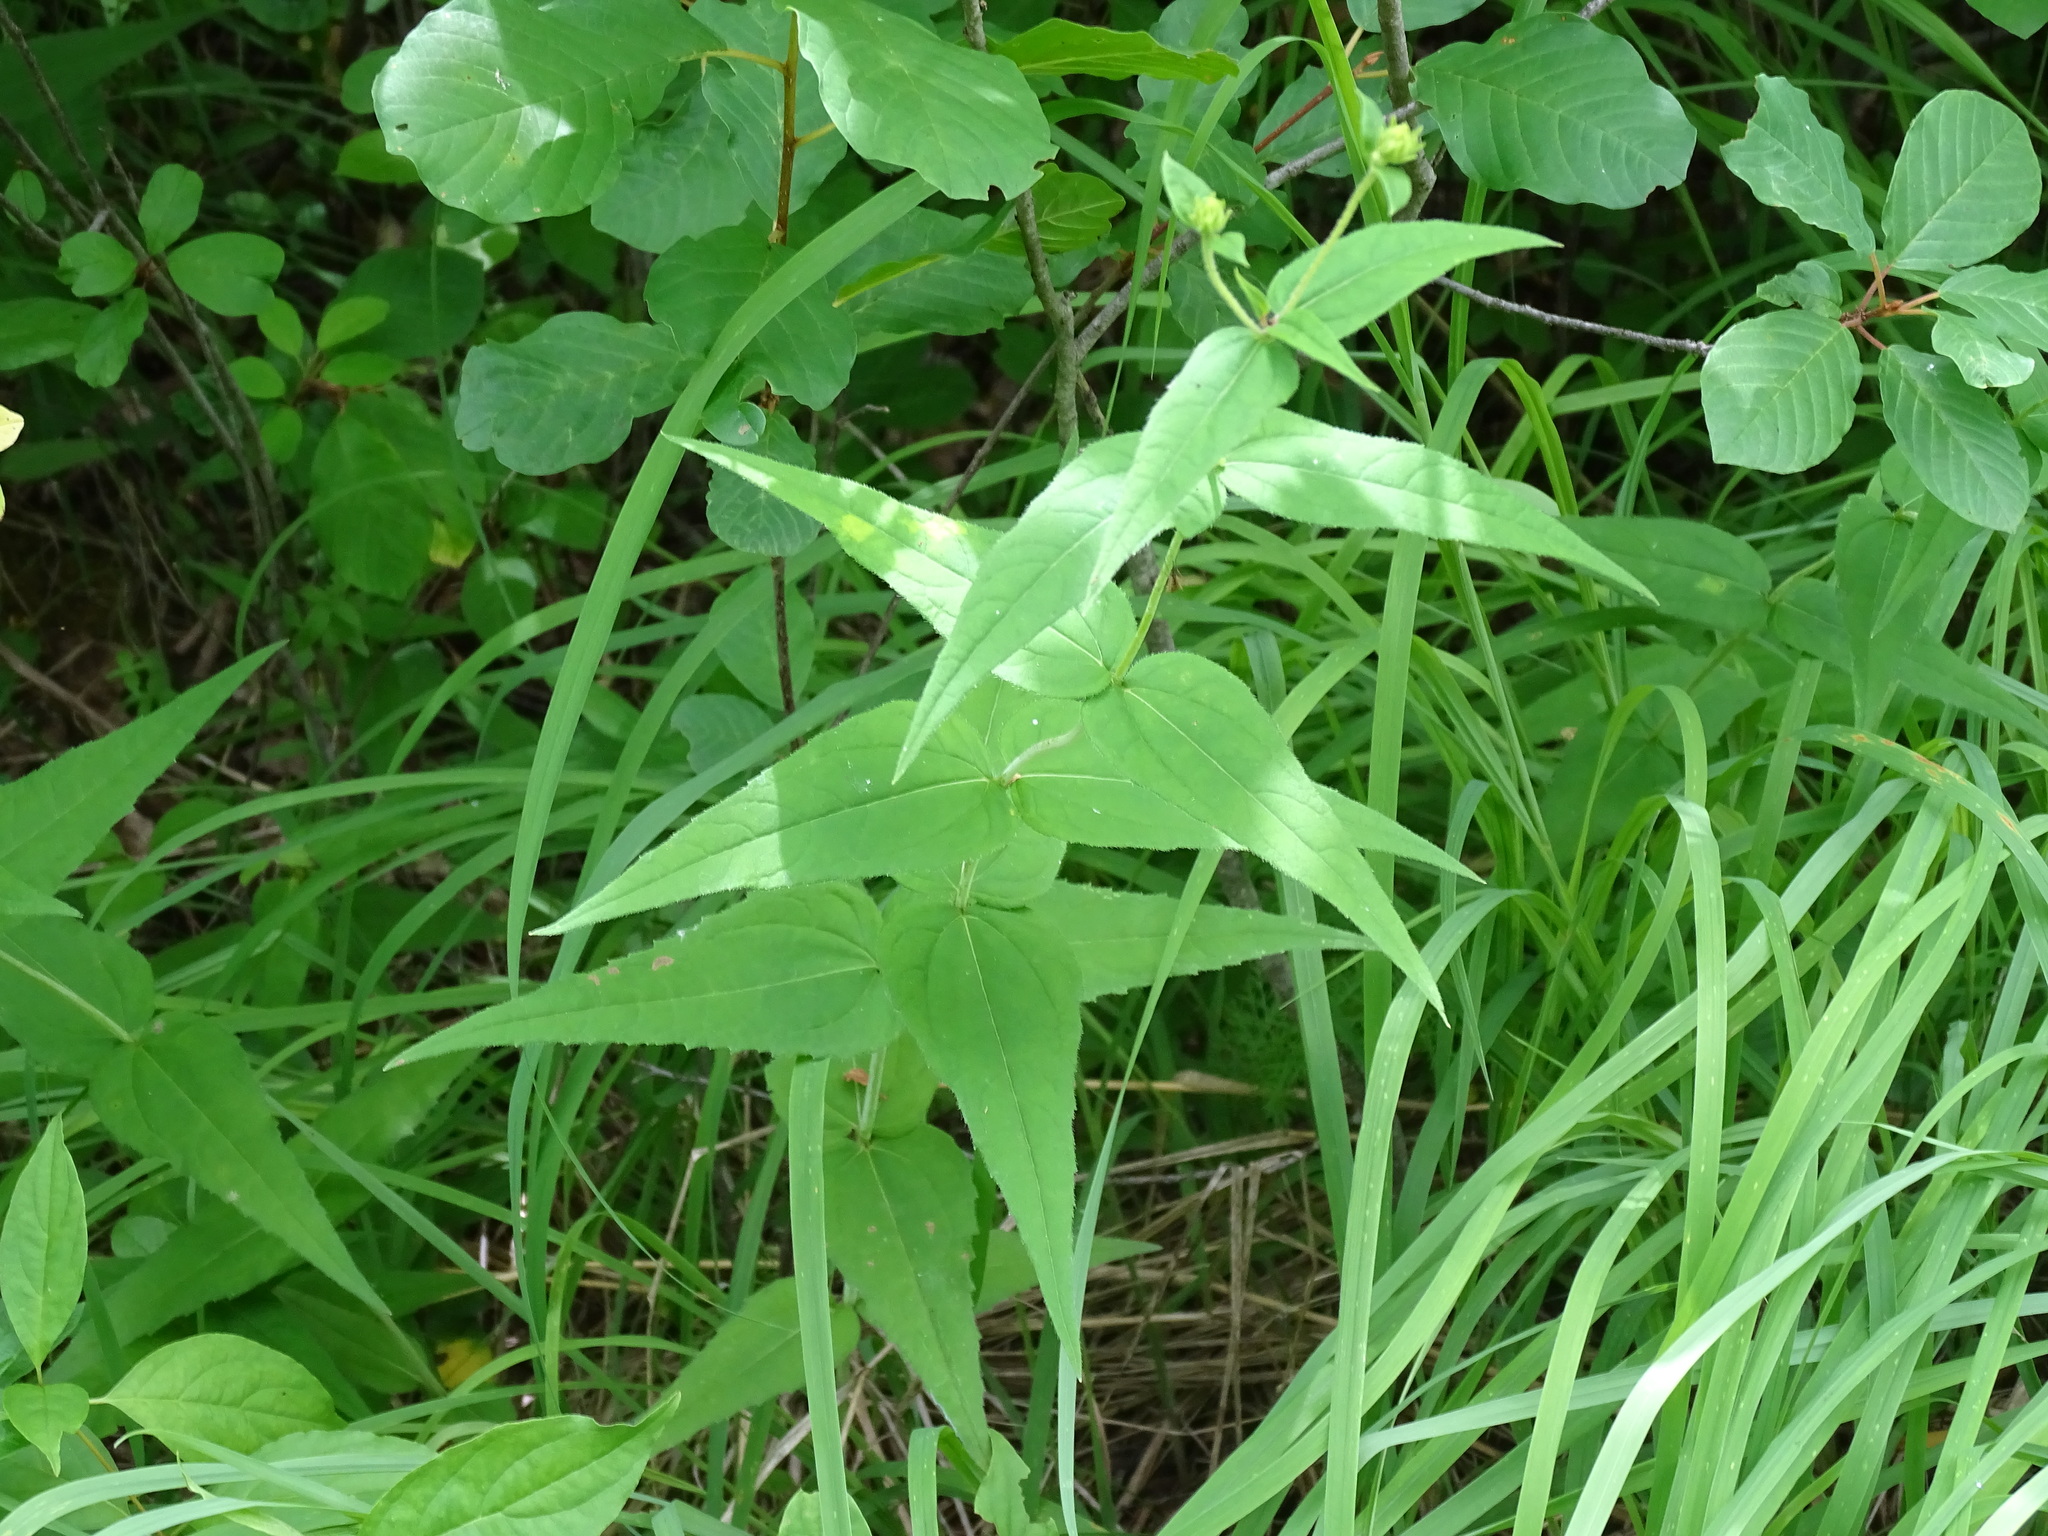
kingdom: Plantae
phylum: Tracheophyta
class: Magnoliopsida
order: Asterales
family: Asteraceae
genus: Helianthus
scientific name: Helianthus divaricatus
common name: Divergent sunflower
